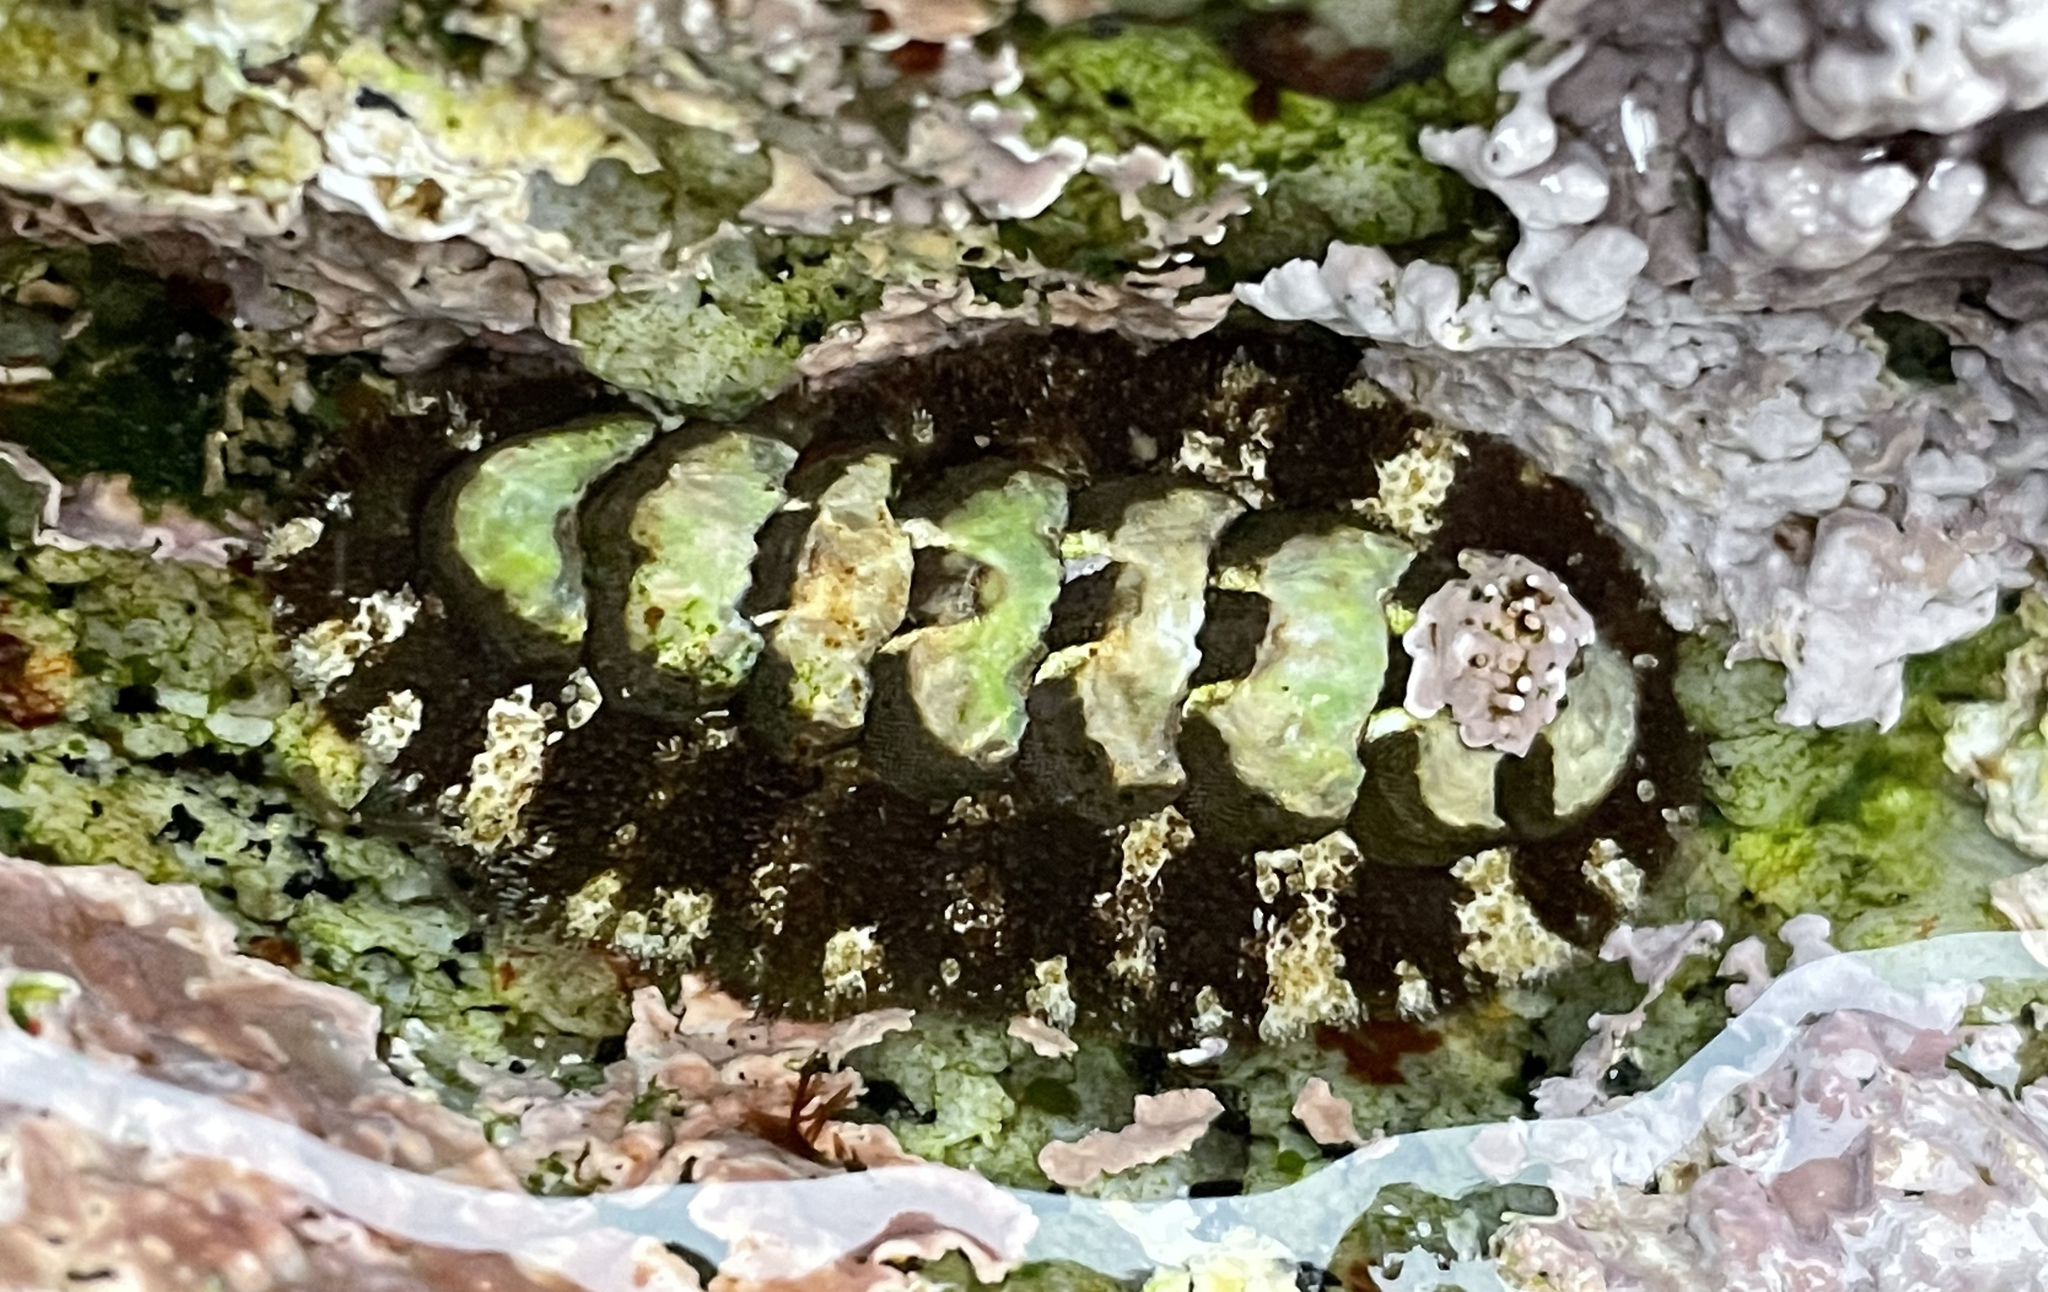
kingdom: Animalia
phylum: Mollusca
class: Polyplacophora
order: Chitonida
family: Tonicellidae
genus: Nuttallina
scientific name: Nuttallina californica
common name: California nuttall chiton
